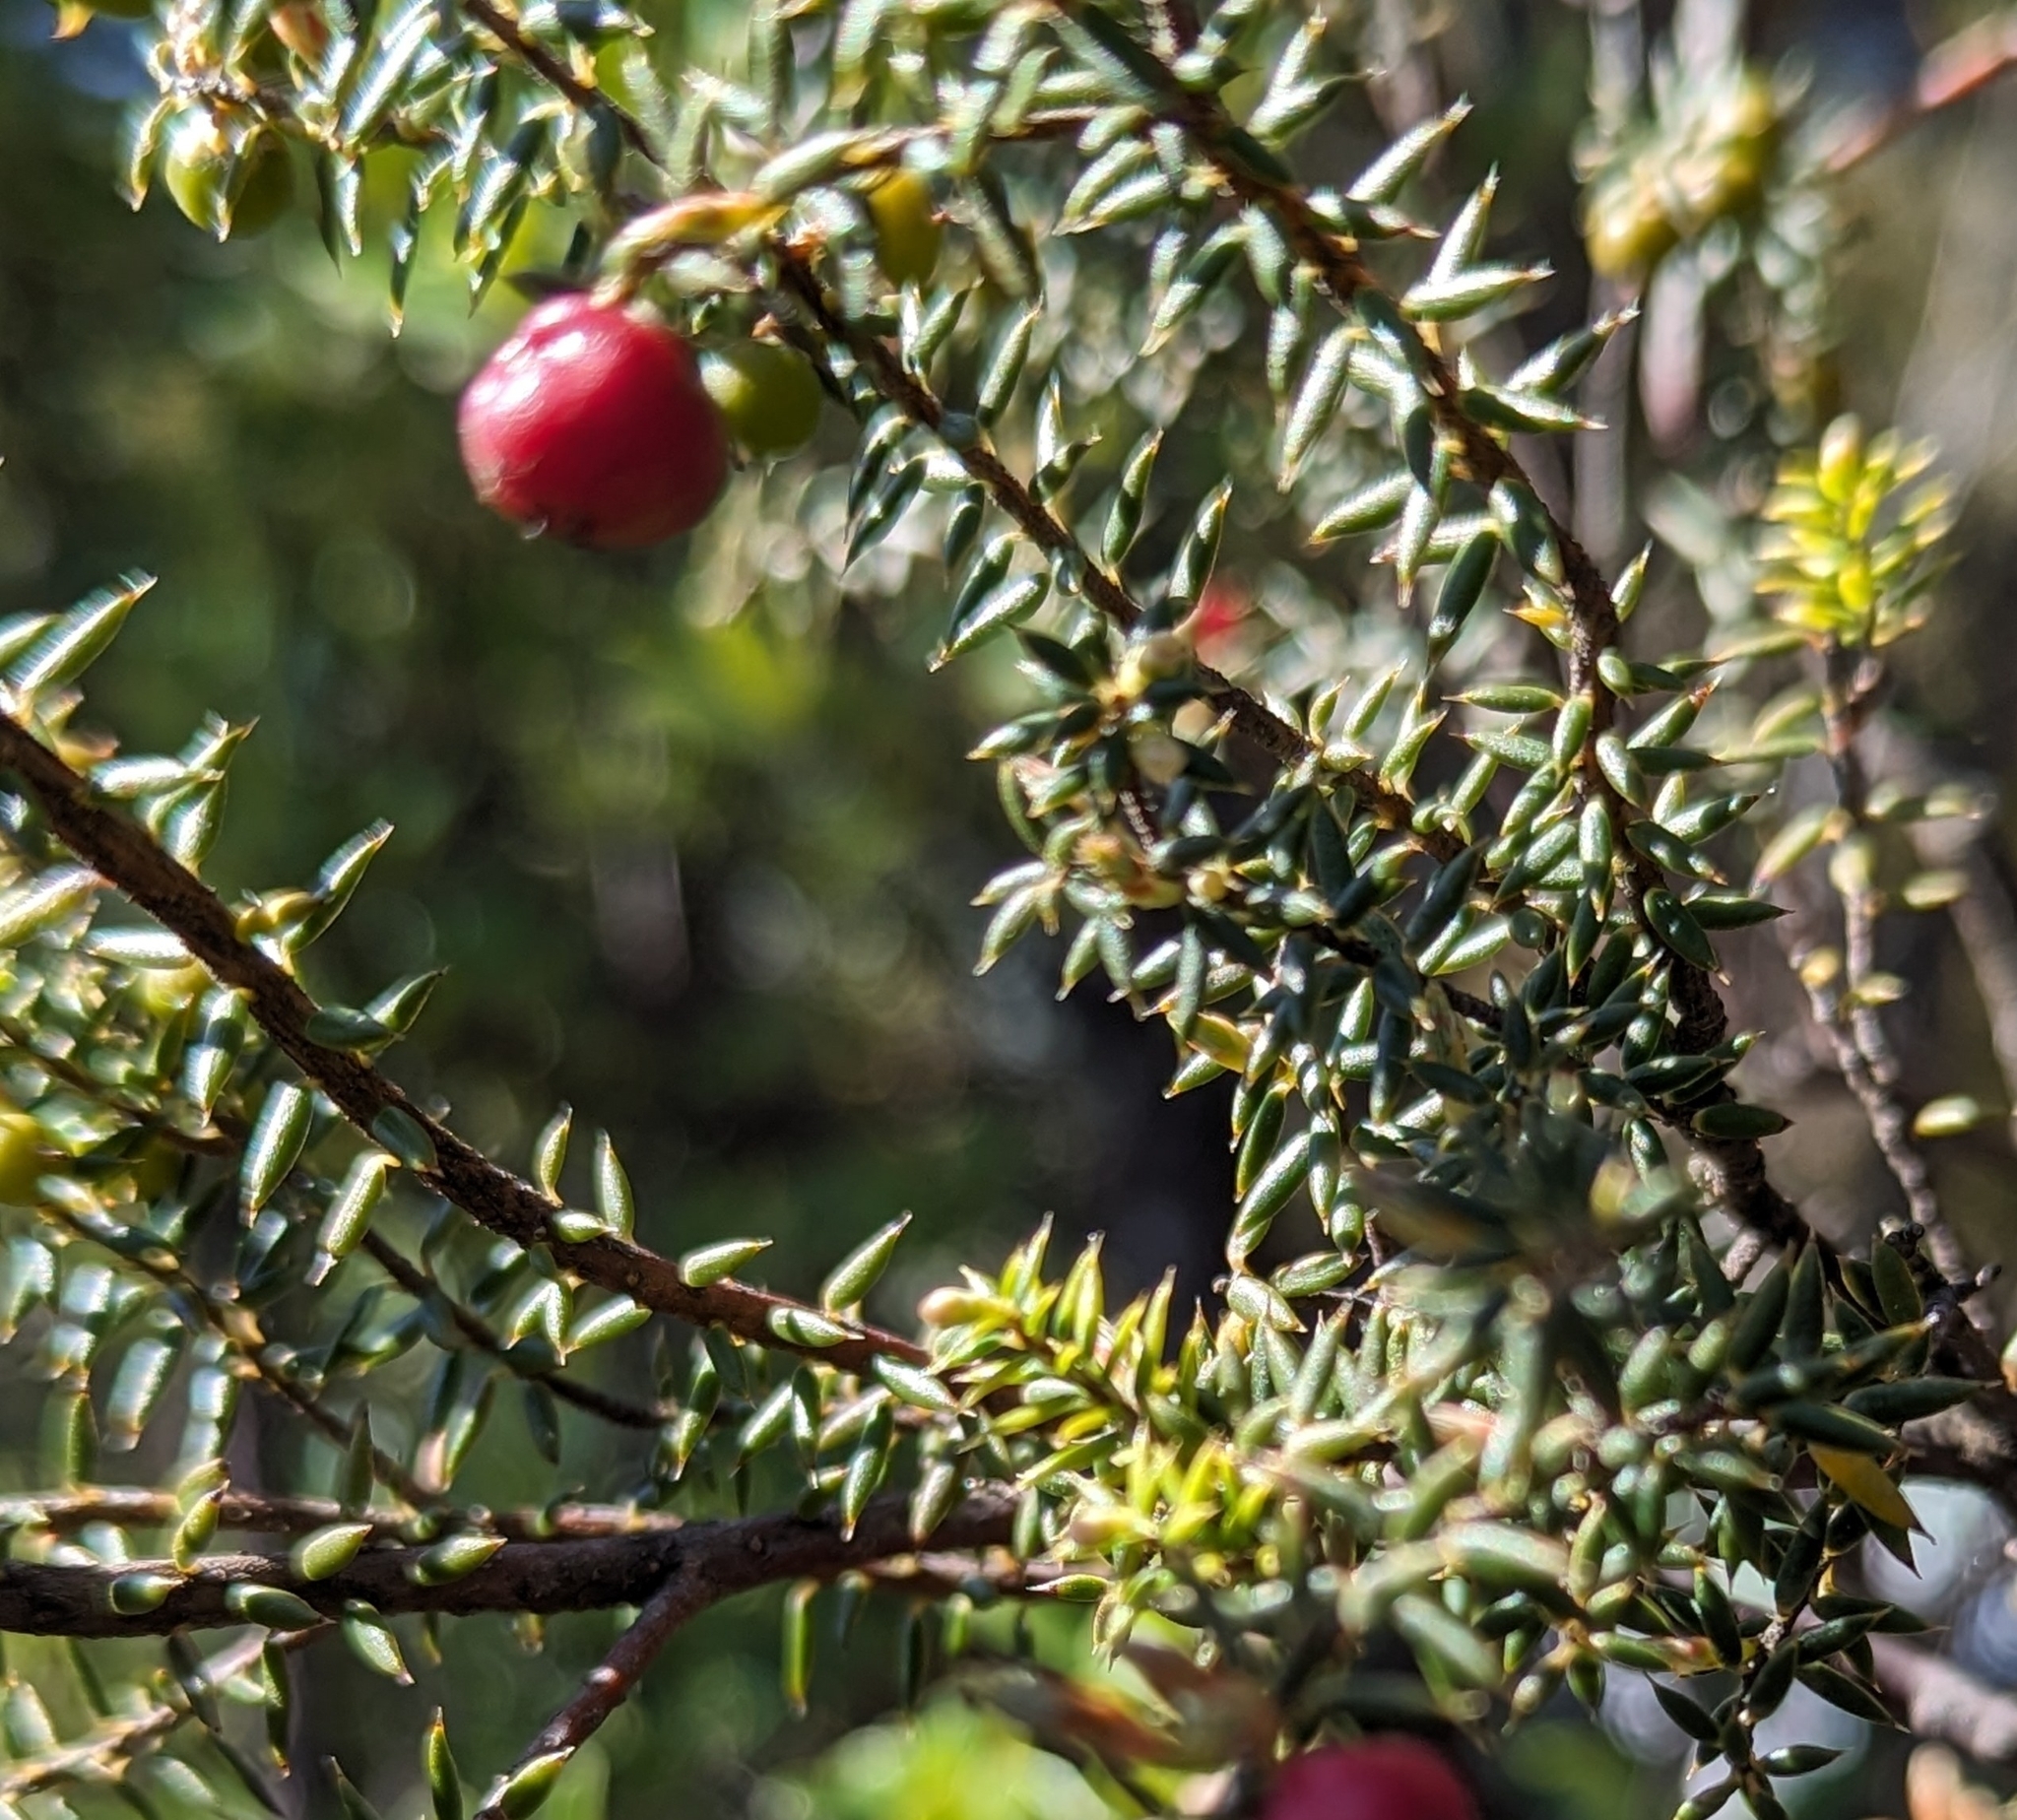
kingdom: Plantae
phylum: Tracheophyta
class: Magnoliopsida
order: Ericales
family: Ericaceae
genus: Leptecophylla
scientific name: Leptecophylla parvifolia
